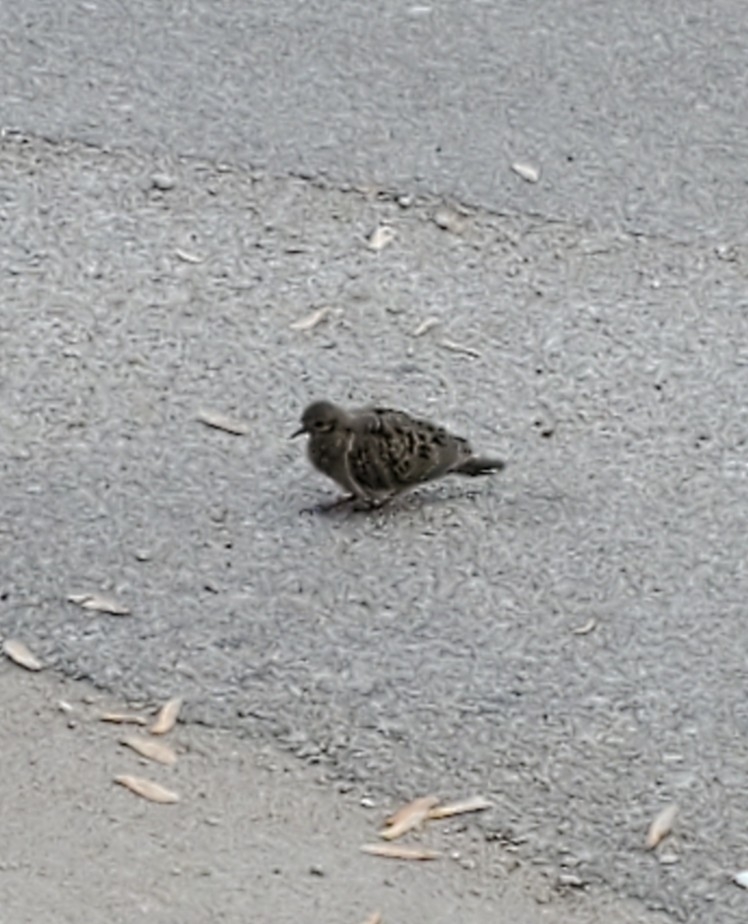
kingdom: Animalia
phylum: Chordata
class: Aves
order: Columbiformes
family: Columbidae
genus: Zenaida
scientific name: Zenaida macroura
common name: Mourning dove
